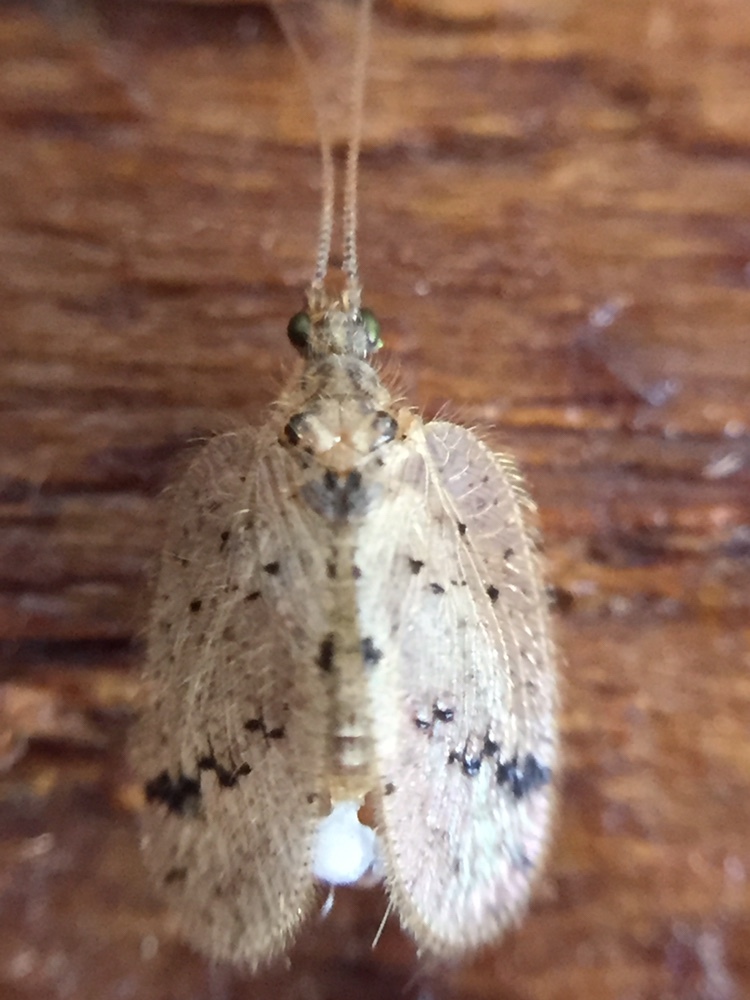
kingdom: Animalia
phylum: Arthropoda
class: Insecta
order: Neuroptera
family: Hemerobiidae
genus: Psectra
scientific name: Psectra nakaharai
